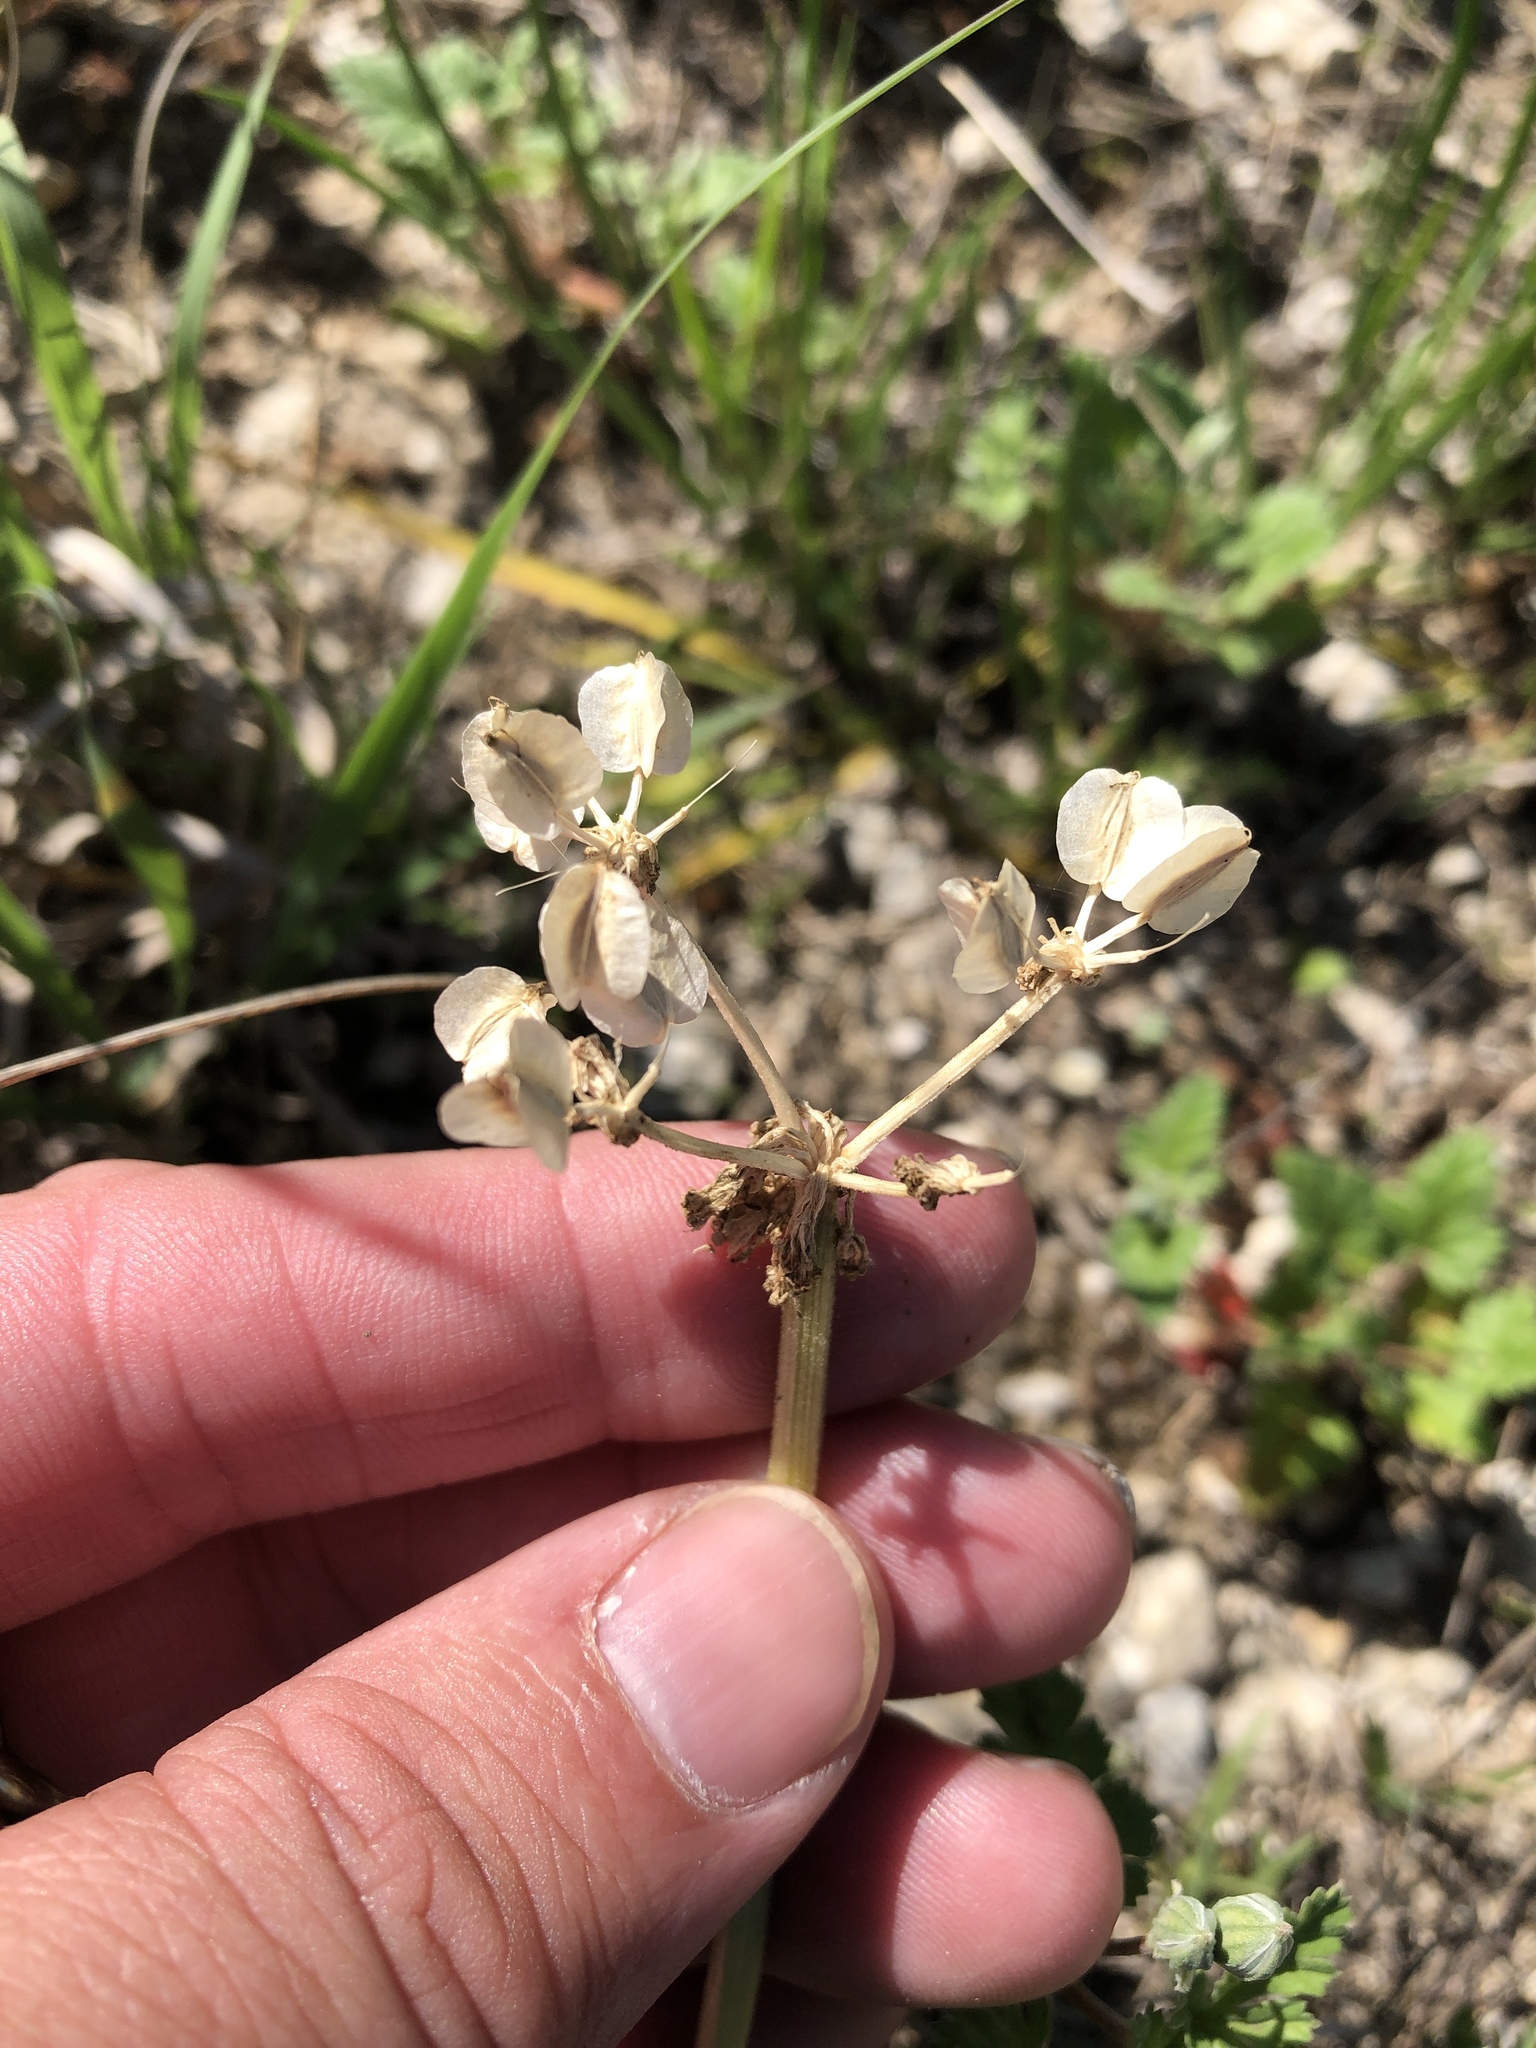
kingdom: Plantae
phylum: Tracheophyta
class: Magnoliopsida
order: Apiales
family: Apiaceae
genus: Vesper
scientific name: Vesper macrorhizus
